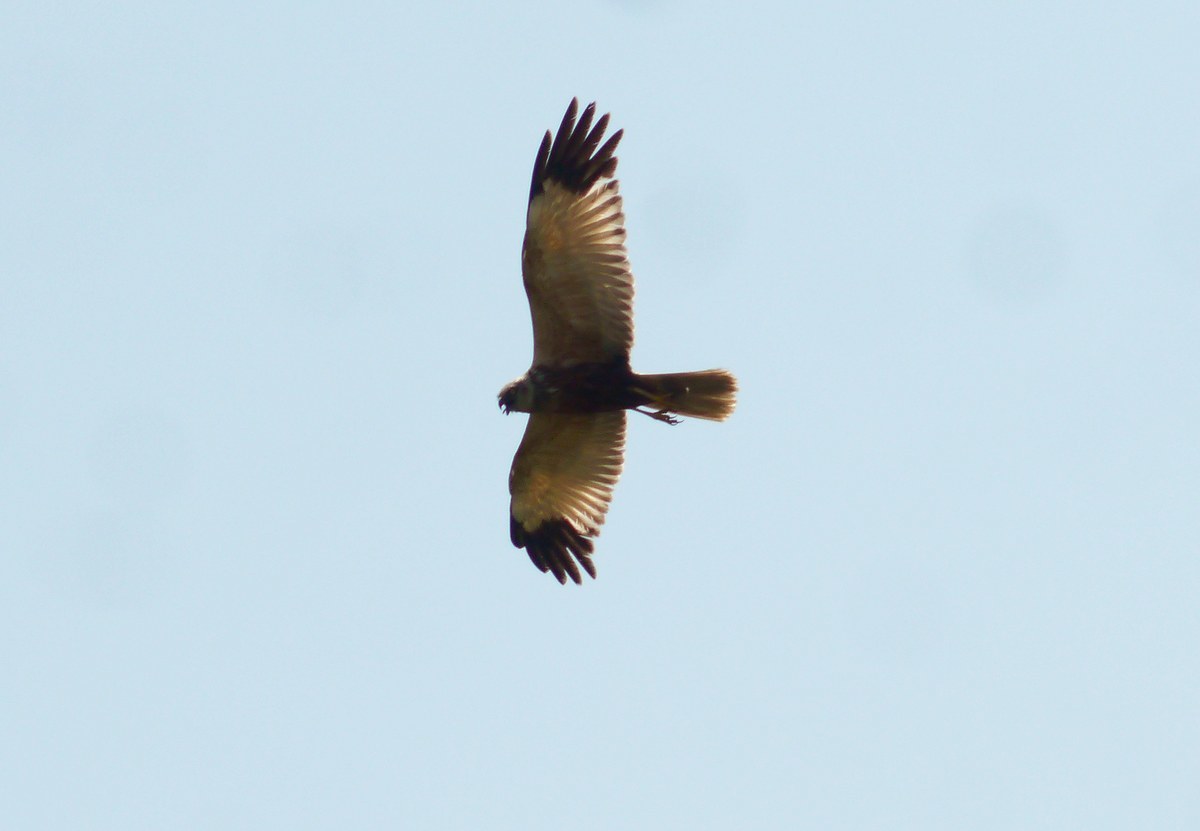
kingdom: Animalia
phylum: Chordata
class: Aves
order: Accipitriformes
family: Accipitridae
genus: Circus
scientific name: Circus aeruginosus
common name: Western marsh harrier
